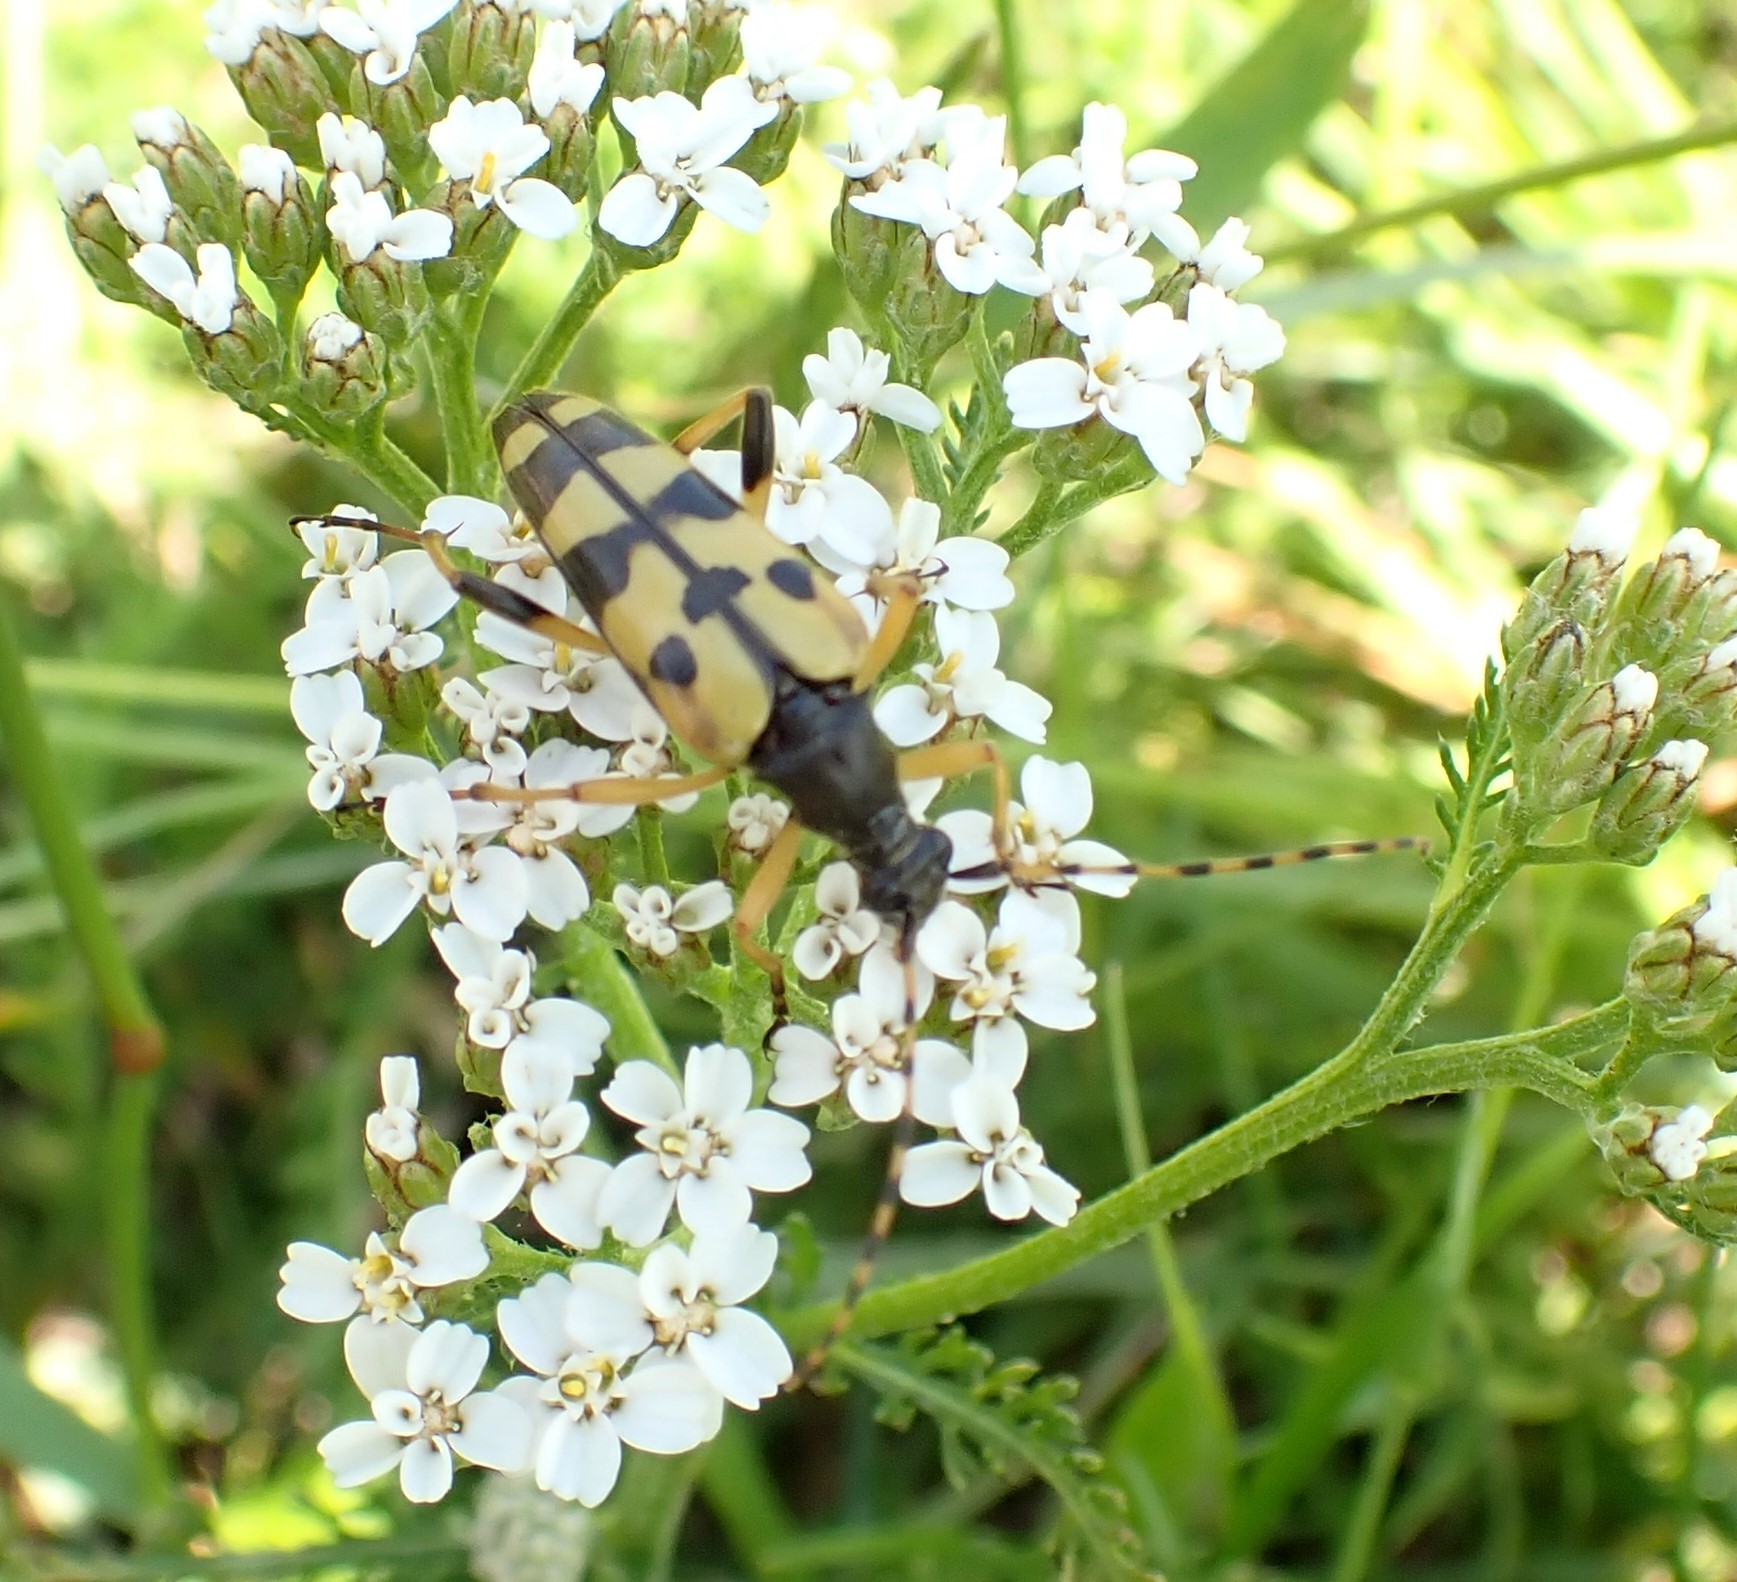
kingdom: Animalia
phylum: Arthropoda
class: Insecta
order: Coleoptera
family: Cerambycidae
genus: Rutpela
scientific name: Rutpela maculata
